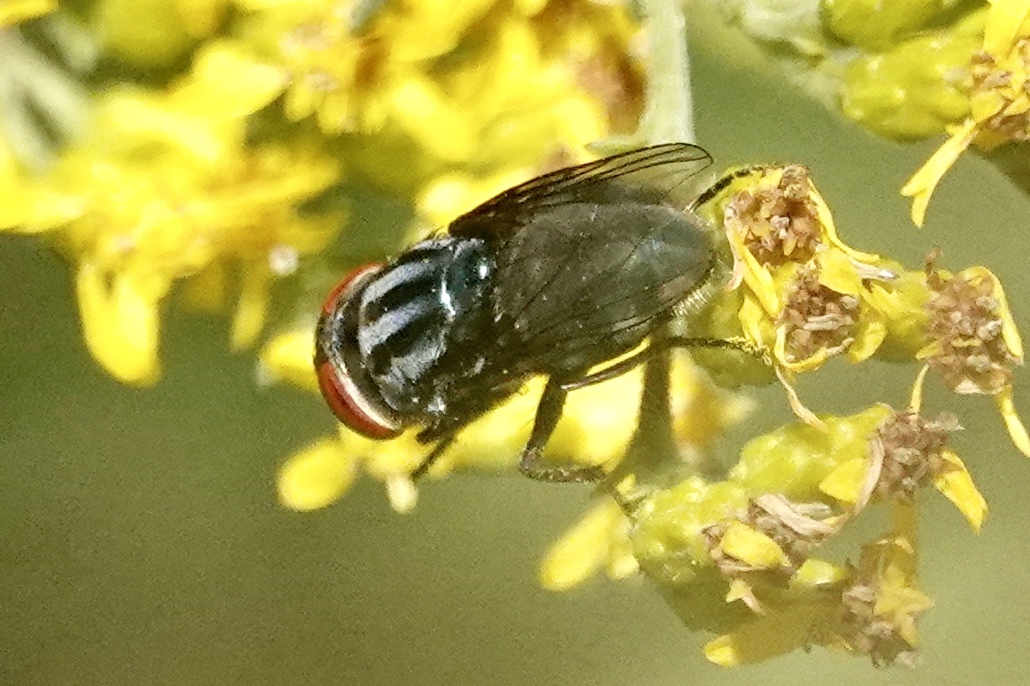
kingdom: Animalia
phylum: Arthropoda
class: Insecta
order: Diptera
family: Calliphoridae
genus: Cochliomyia
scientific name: Cochliomyia macellaria
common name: Secondary screwworm
